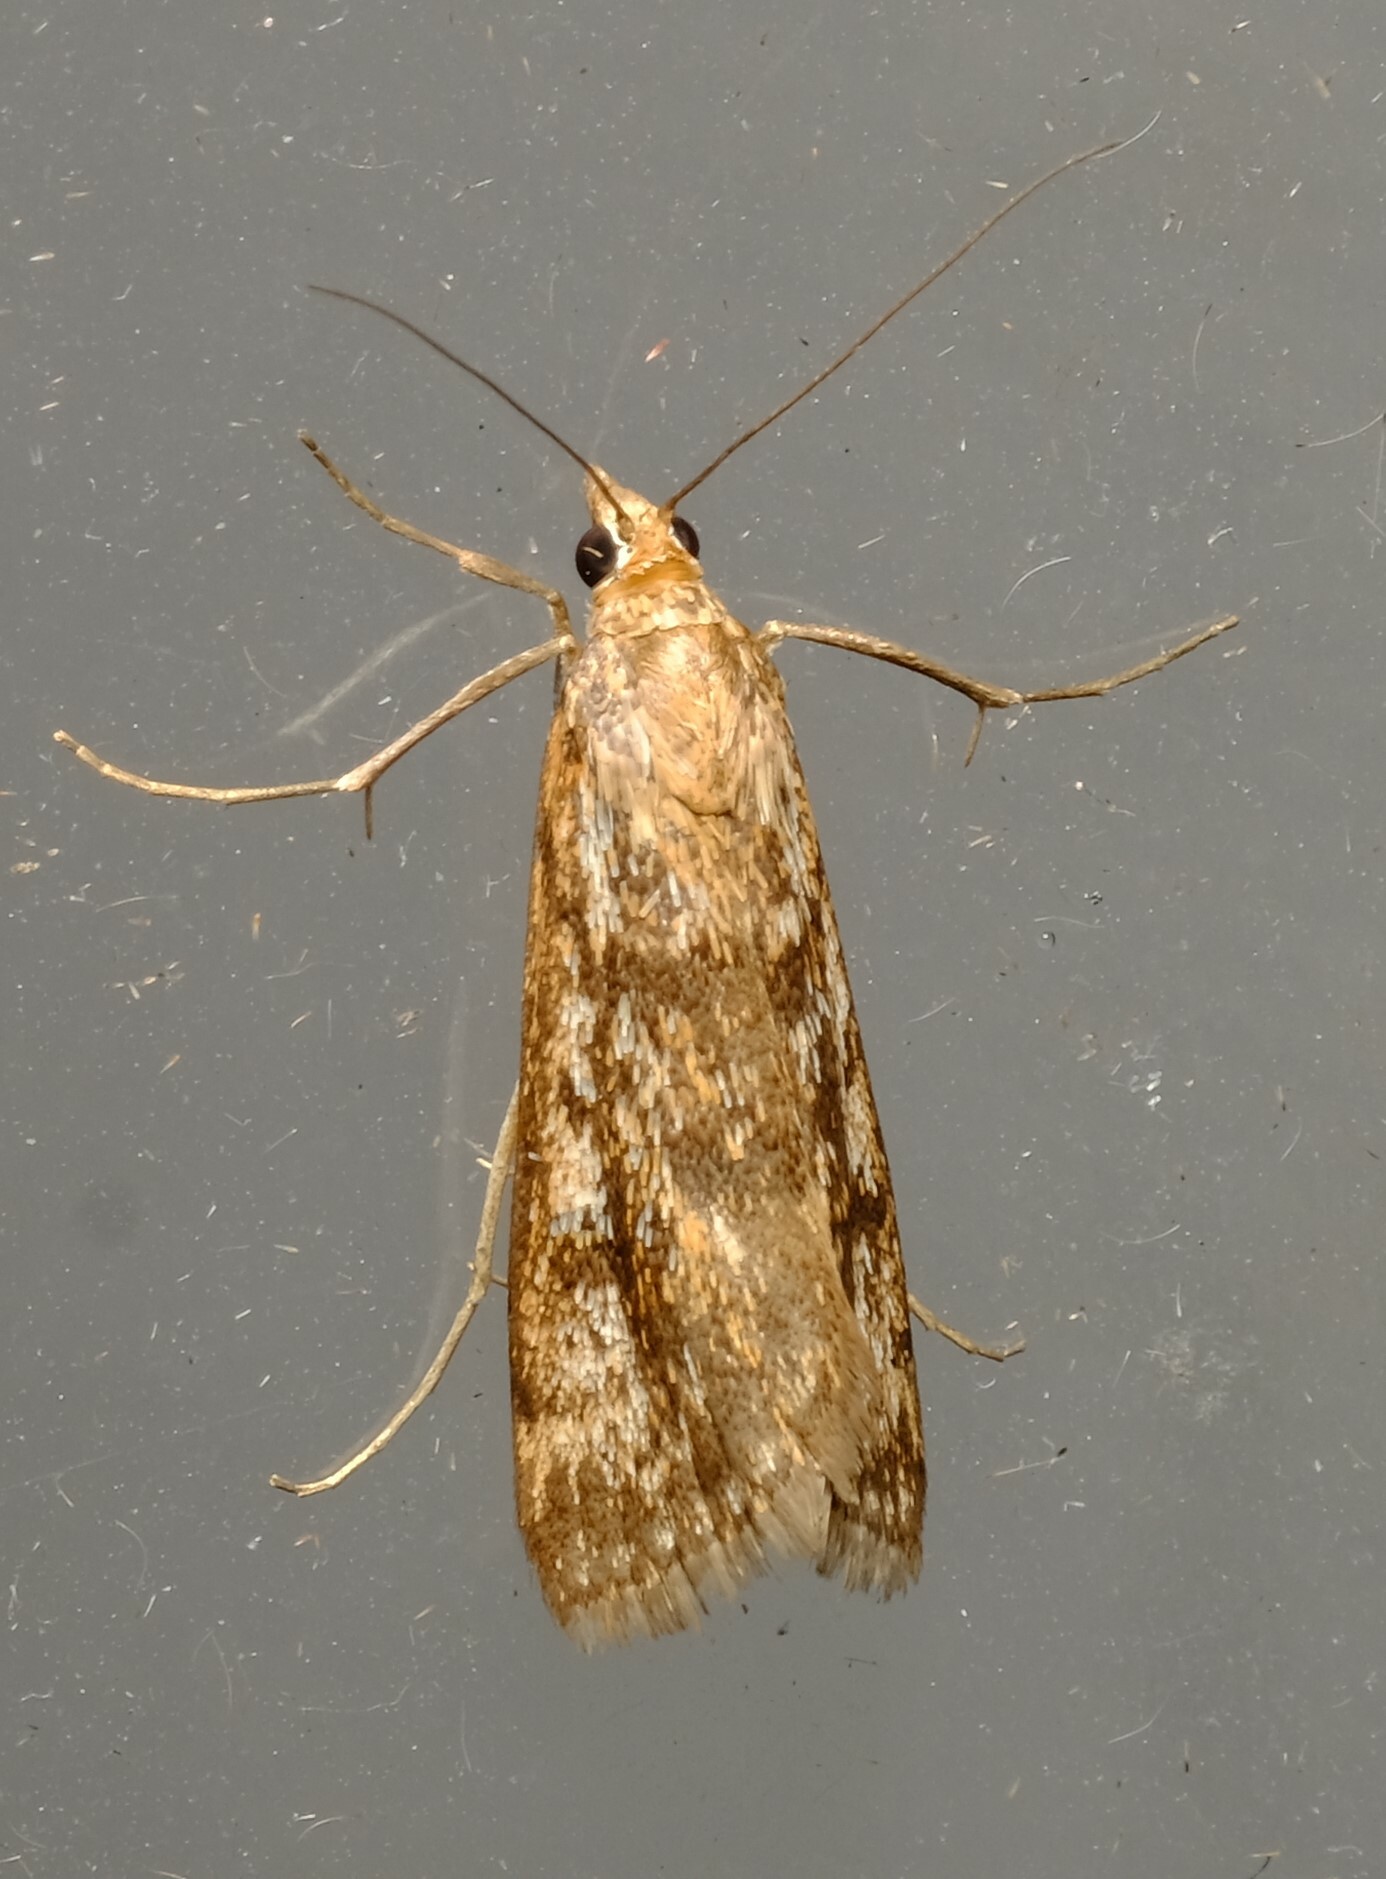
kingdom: Animalia
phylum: Arthropoda
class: Insecta
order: Lepidoptera
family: Crambidae
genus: Achyra
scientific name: Achyra affinitalis
